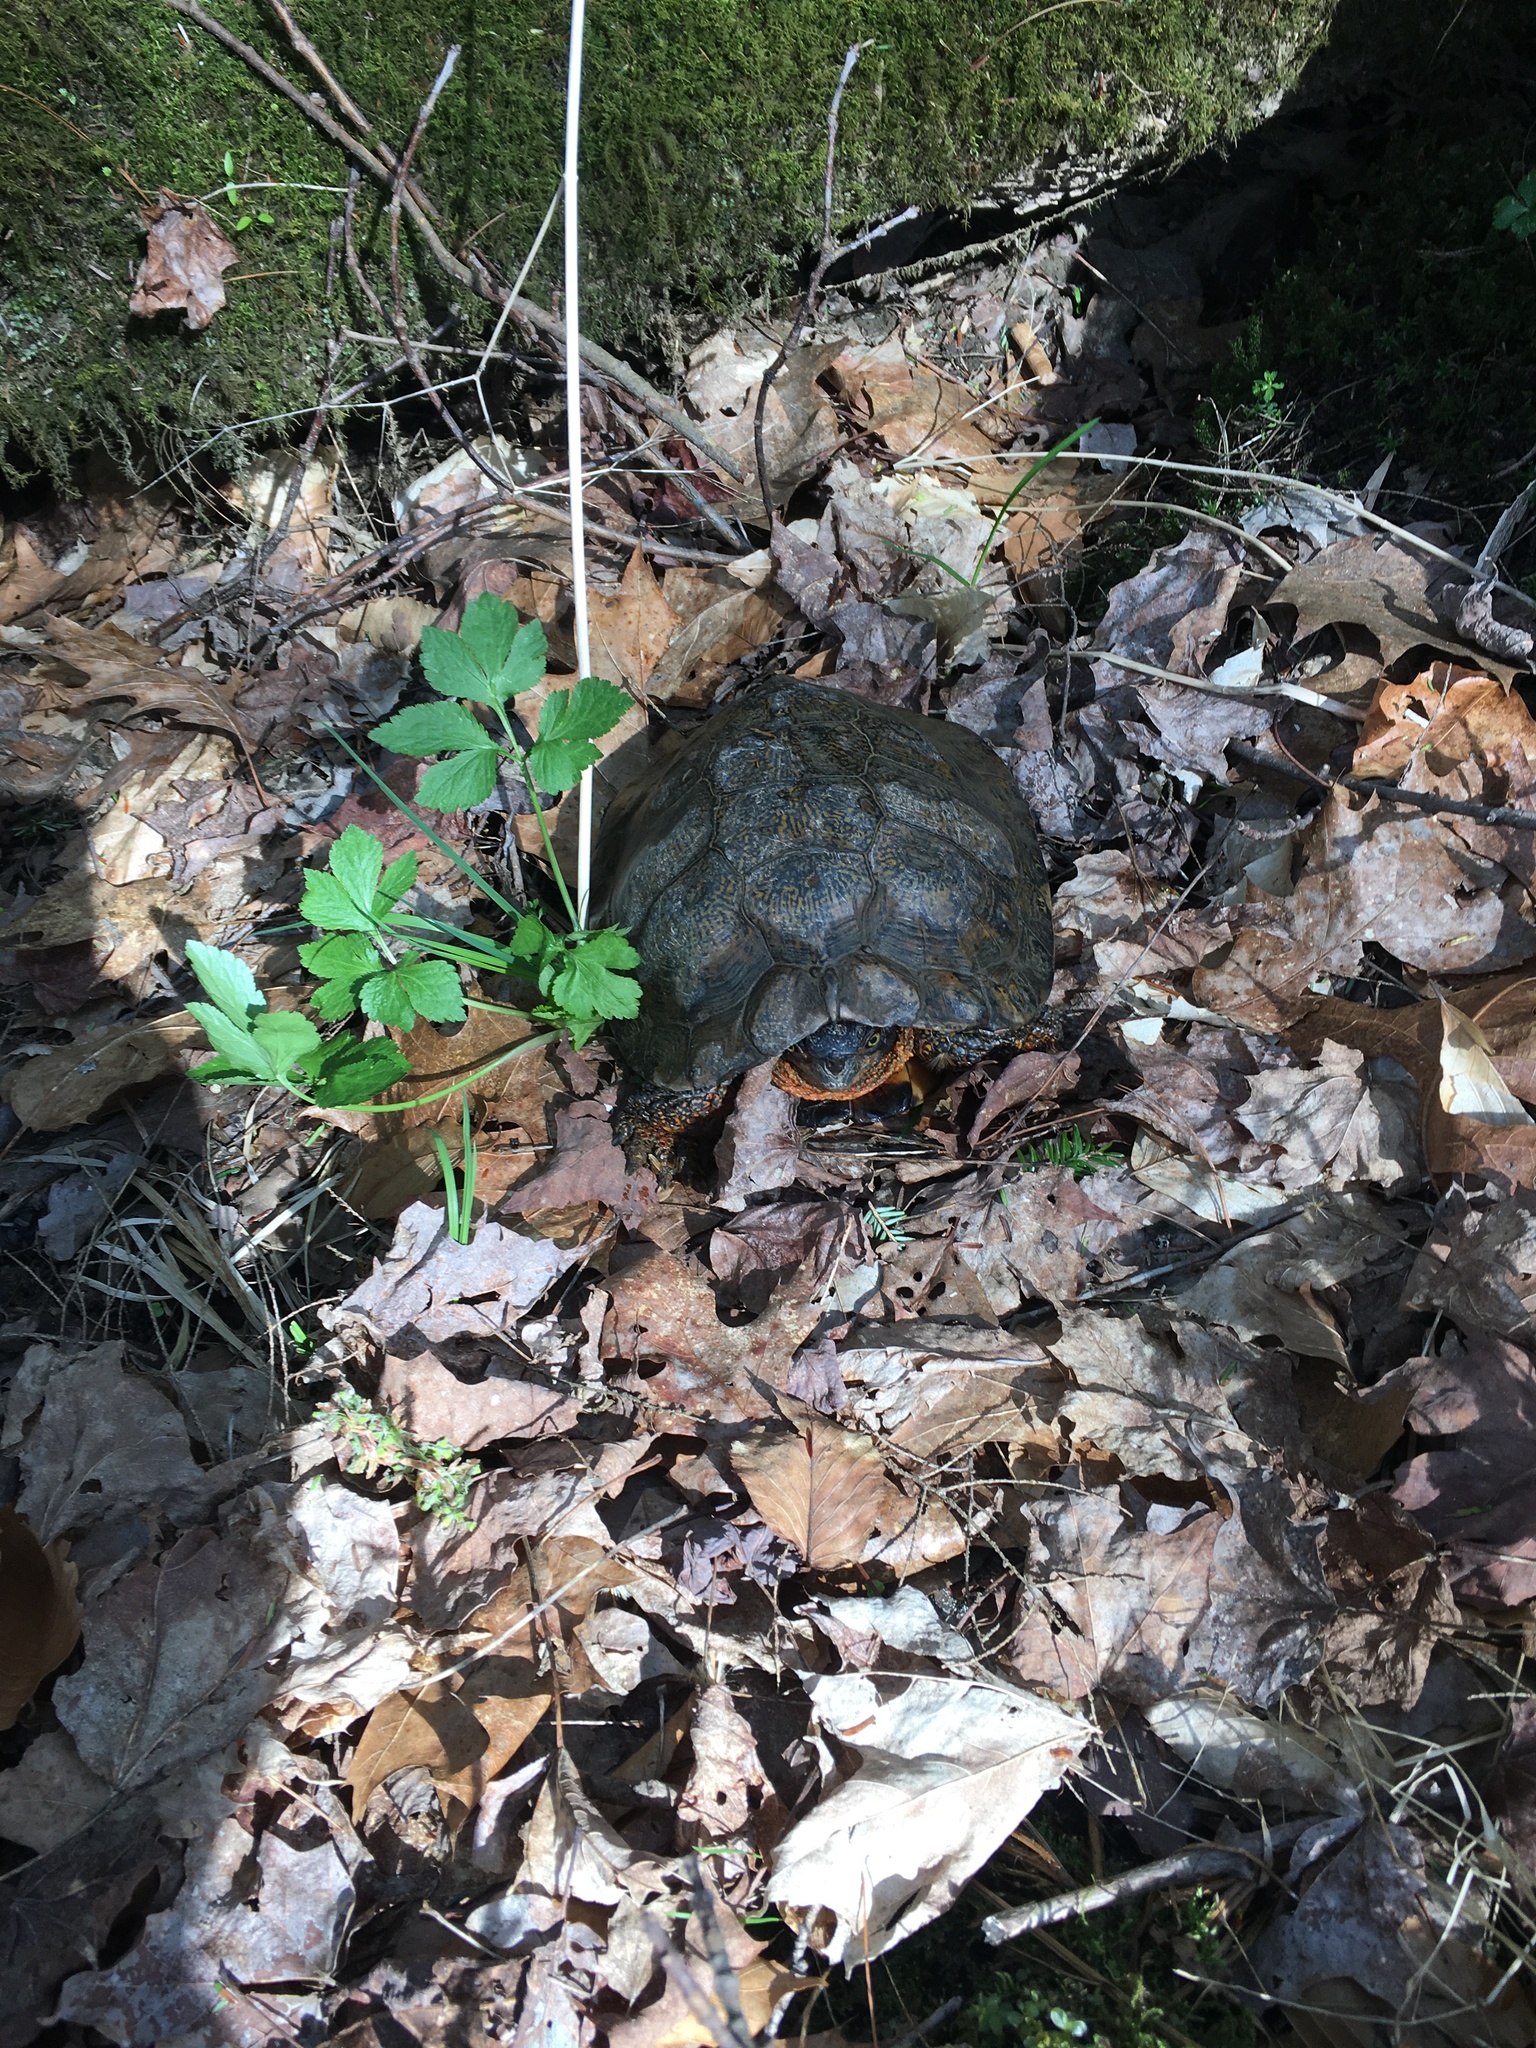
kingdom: Animalia
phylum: Chordata
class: Testudines
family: Emydidae
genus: Glyptemys
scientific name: Glyptemys insculpta
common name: Wood turtle
